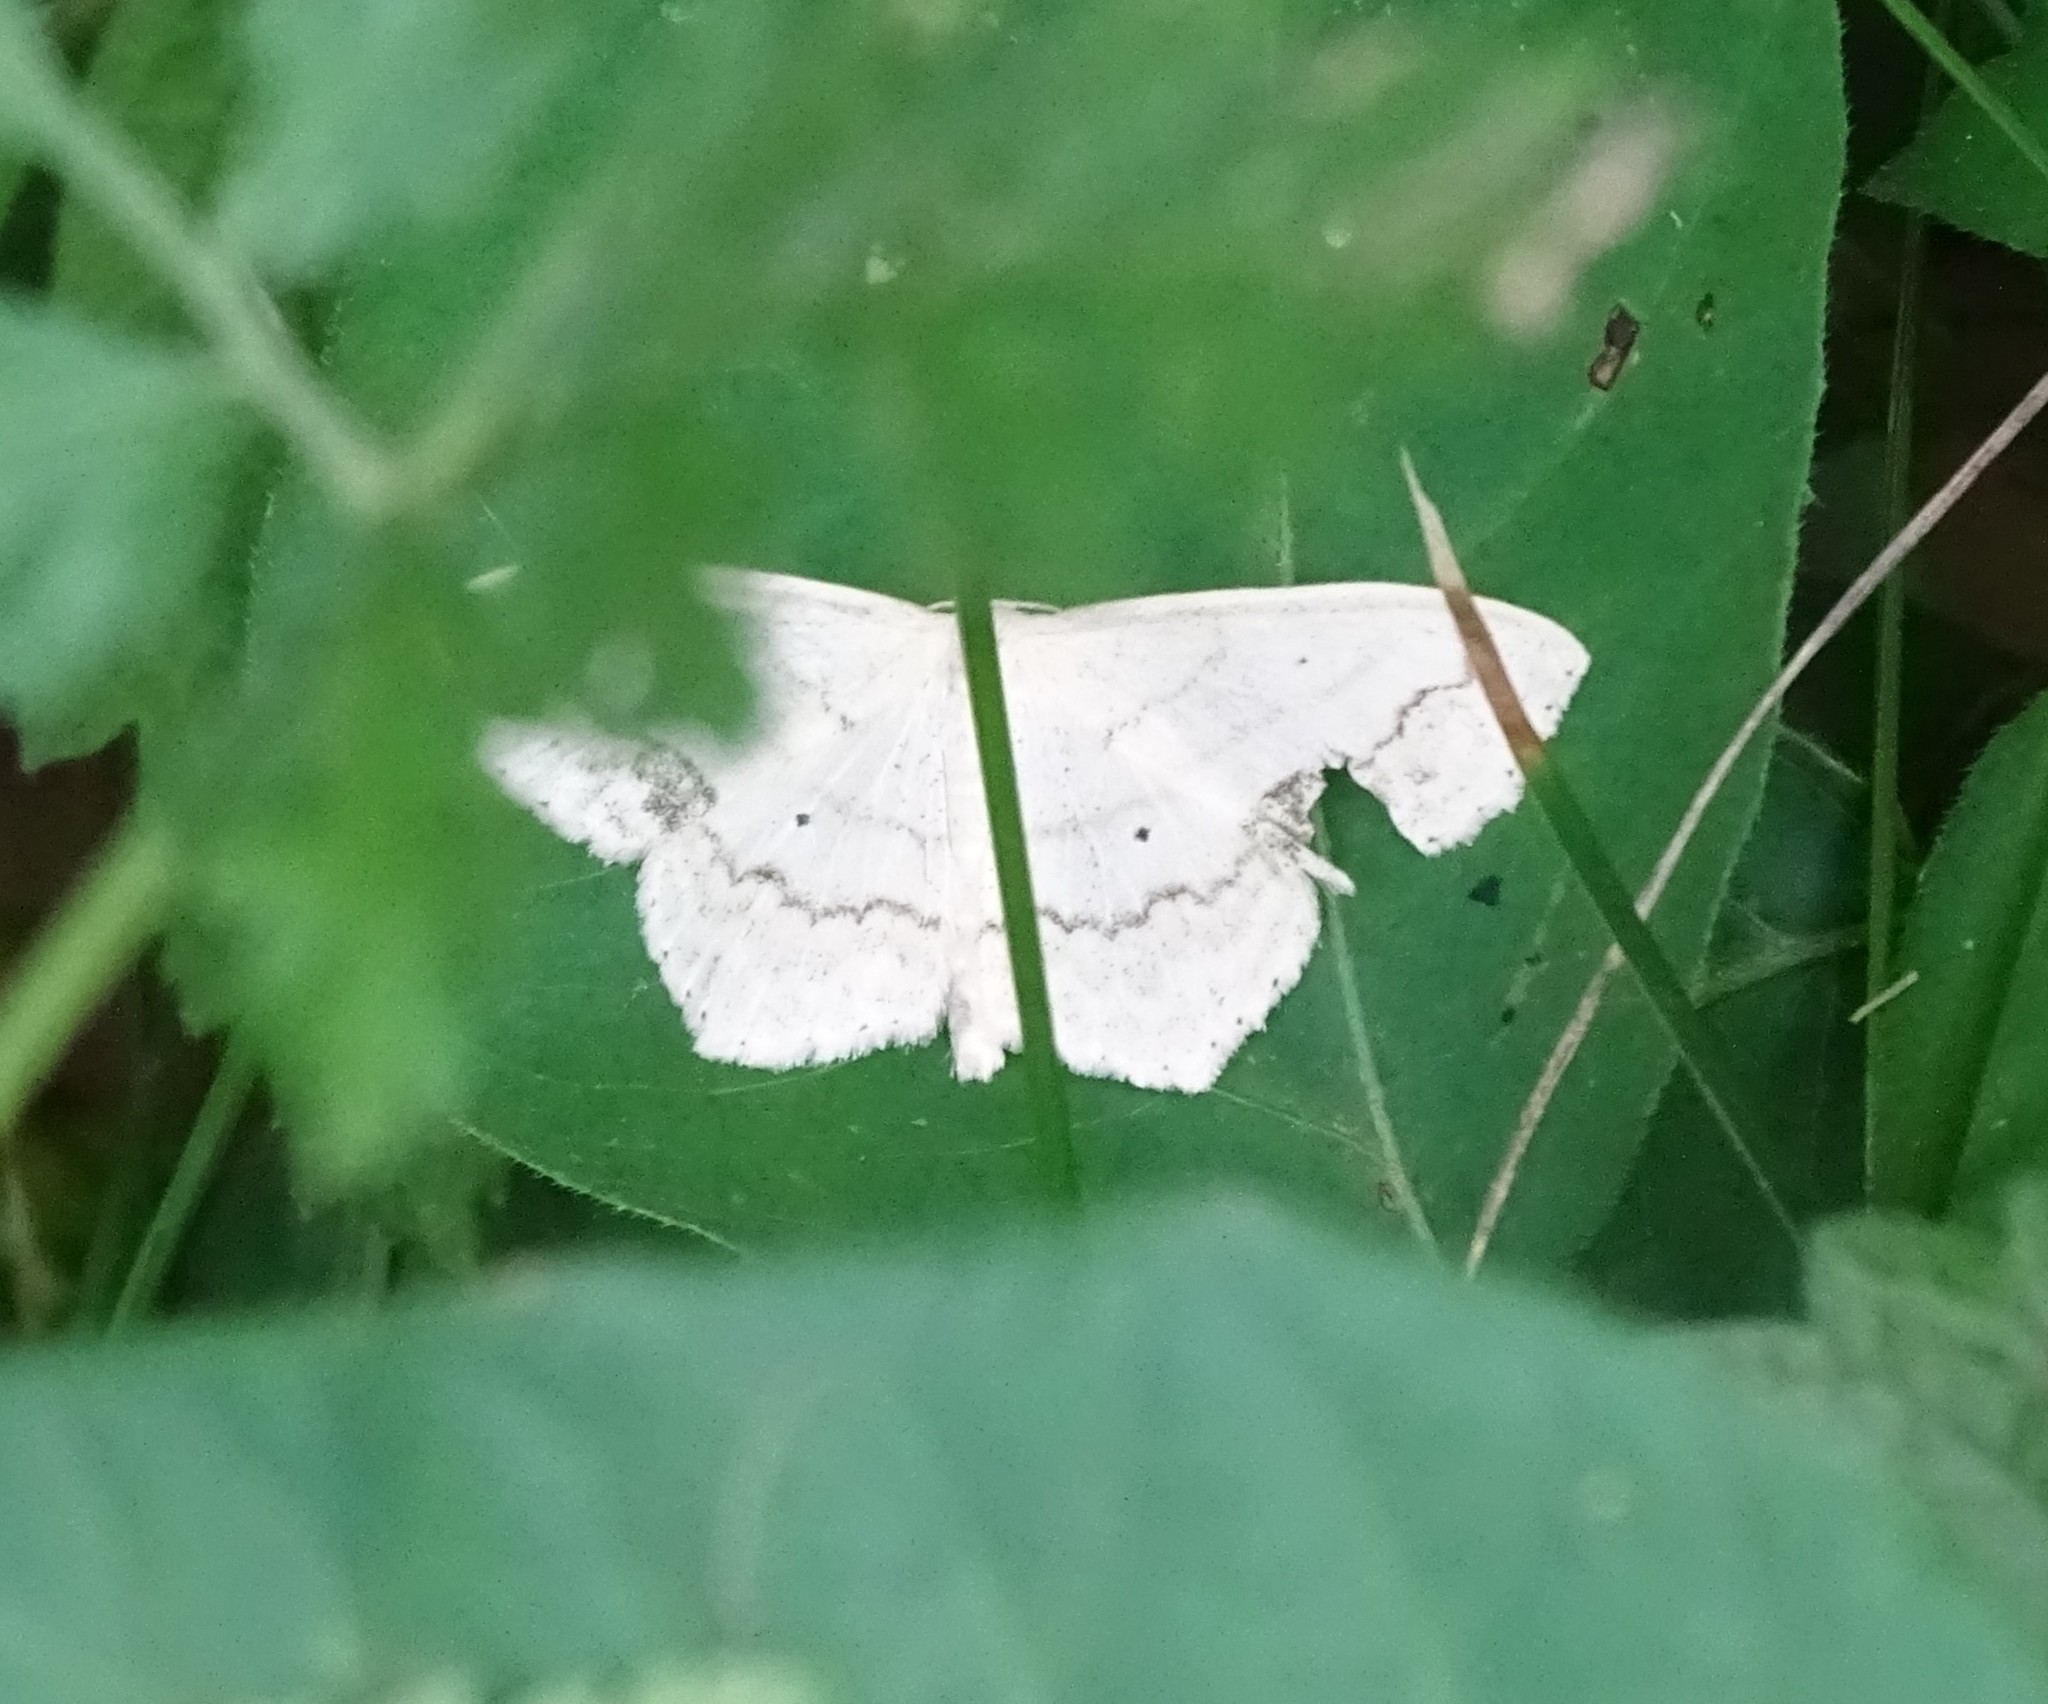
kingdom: Animalia
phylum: Arthropoda
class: Insecta
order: Lepidoptera
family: Geometridae
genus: Scopula
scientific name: Scopula limboundata
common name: Large lace border
